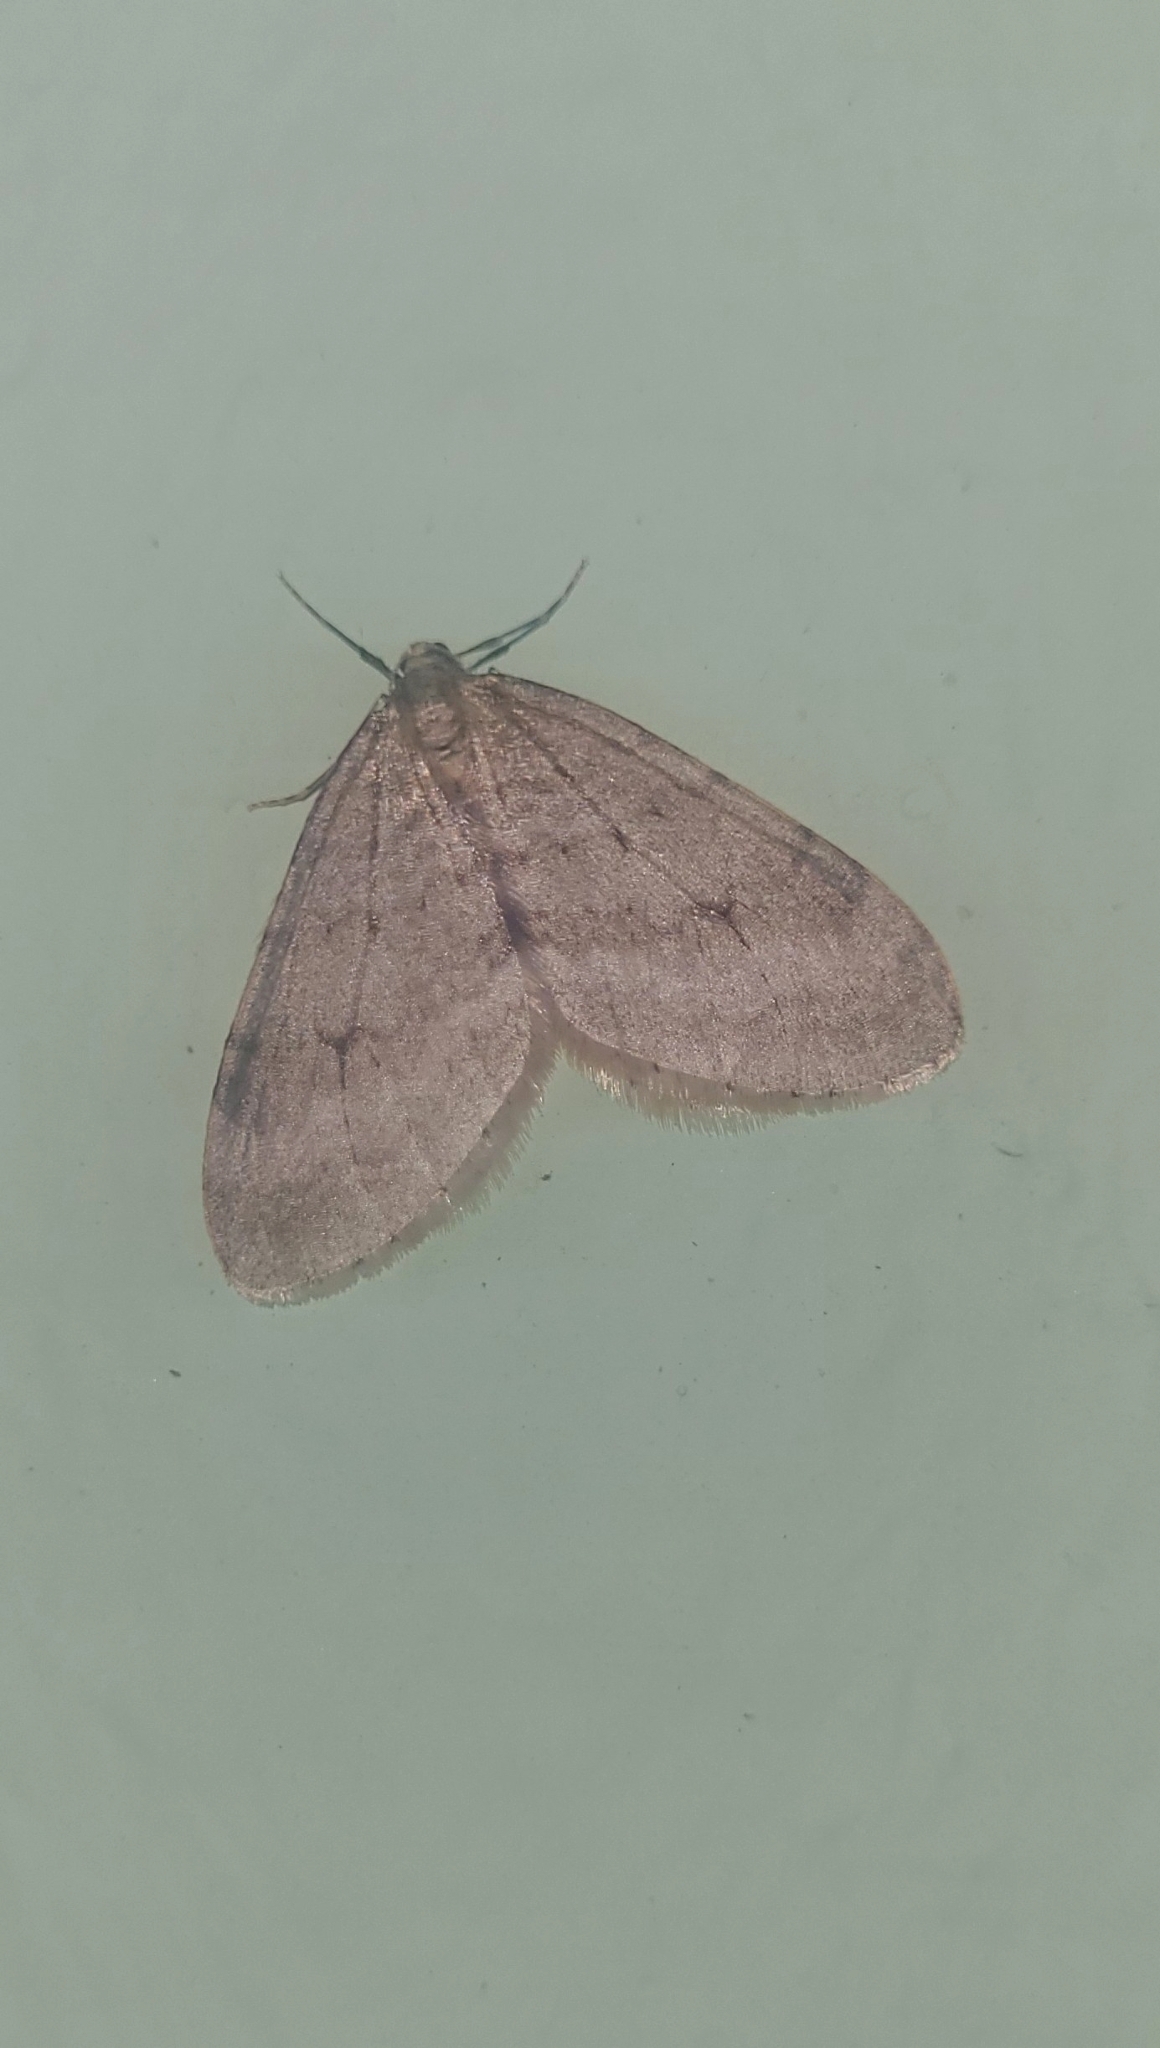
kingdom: Animalia
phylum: Arthropoda
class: Insecta
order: Lepidoptera
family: Geometridae
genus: Operophtera
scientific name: Operophtera fagata
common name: Northern winter moth
